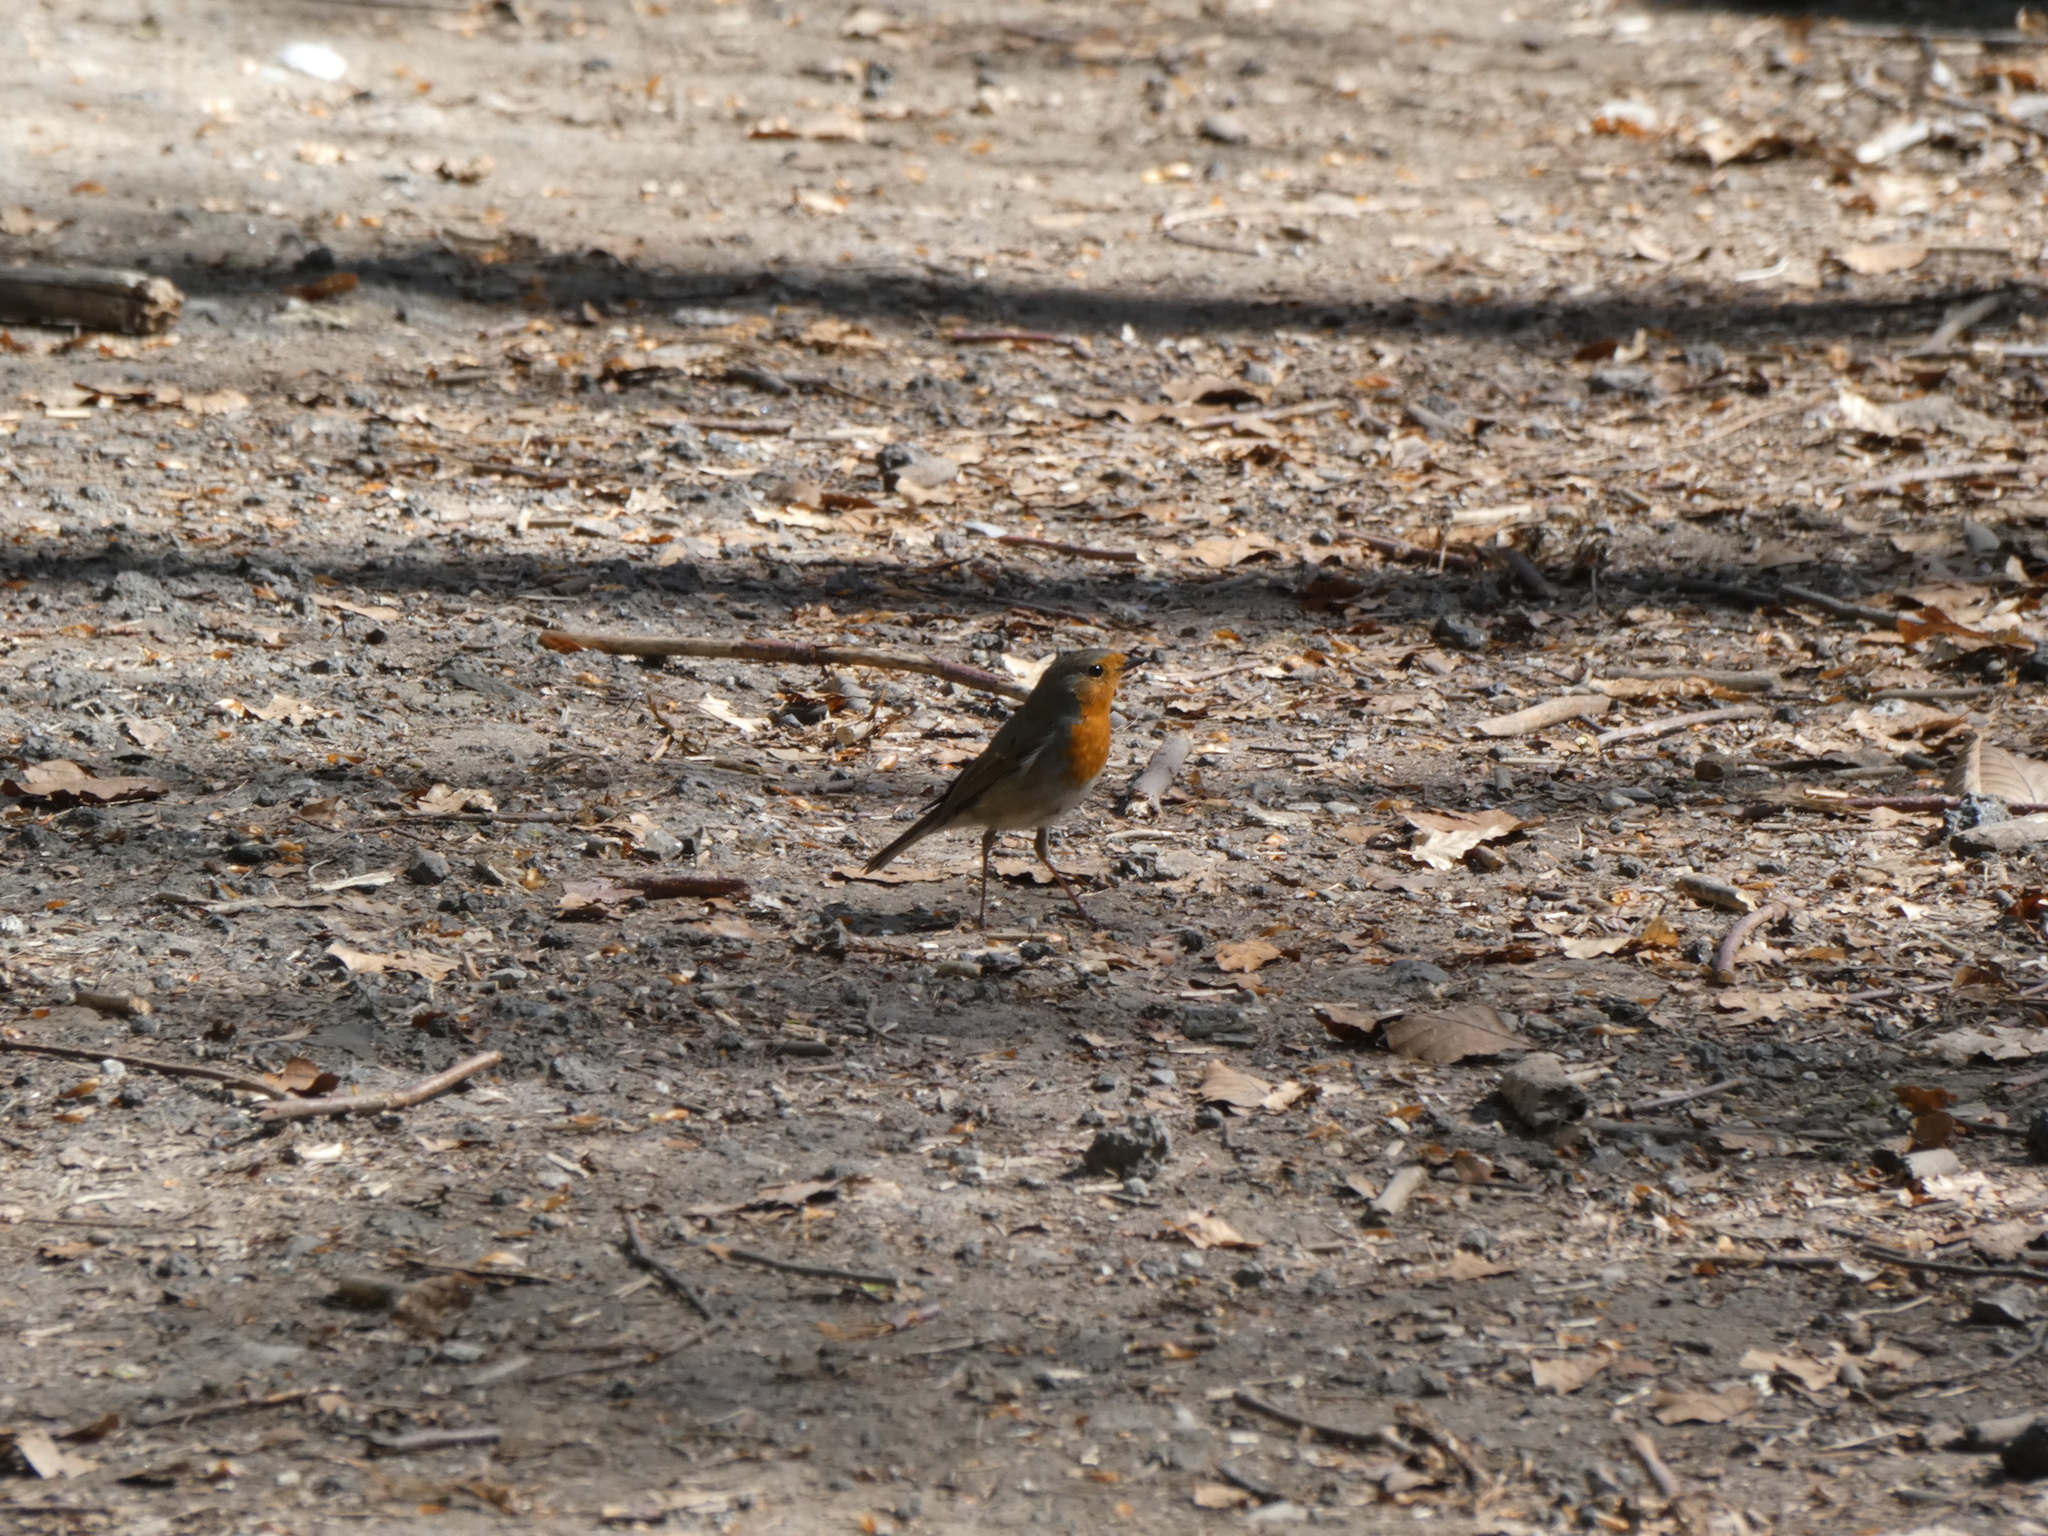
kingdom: Animalia
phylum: Chordata
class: Aves
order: Passeriformes
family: Muscicapidae
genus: Erithacus
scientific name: Erithacus rubecula
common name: European robin
